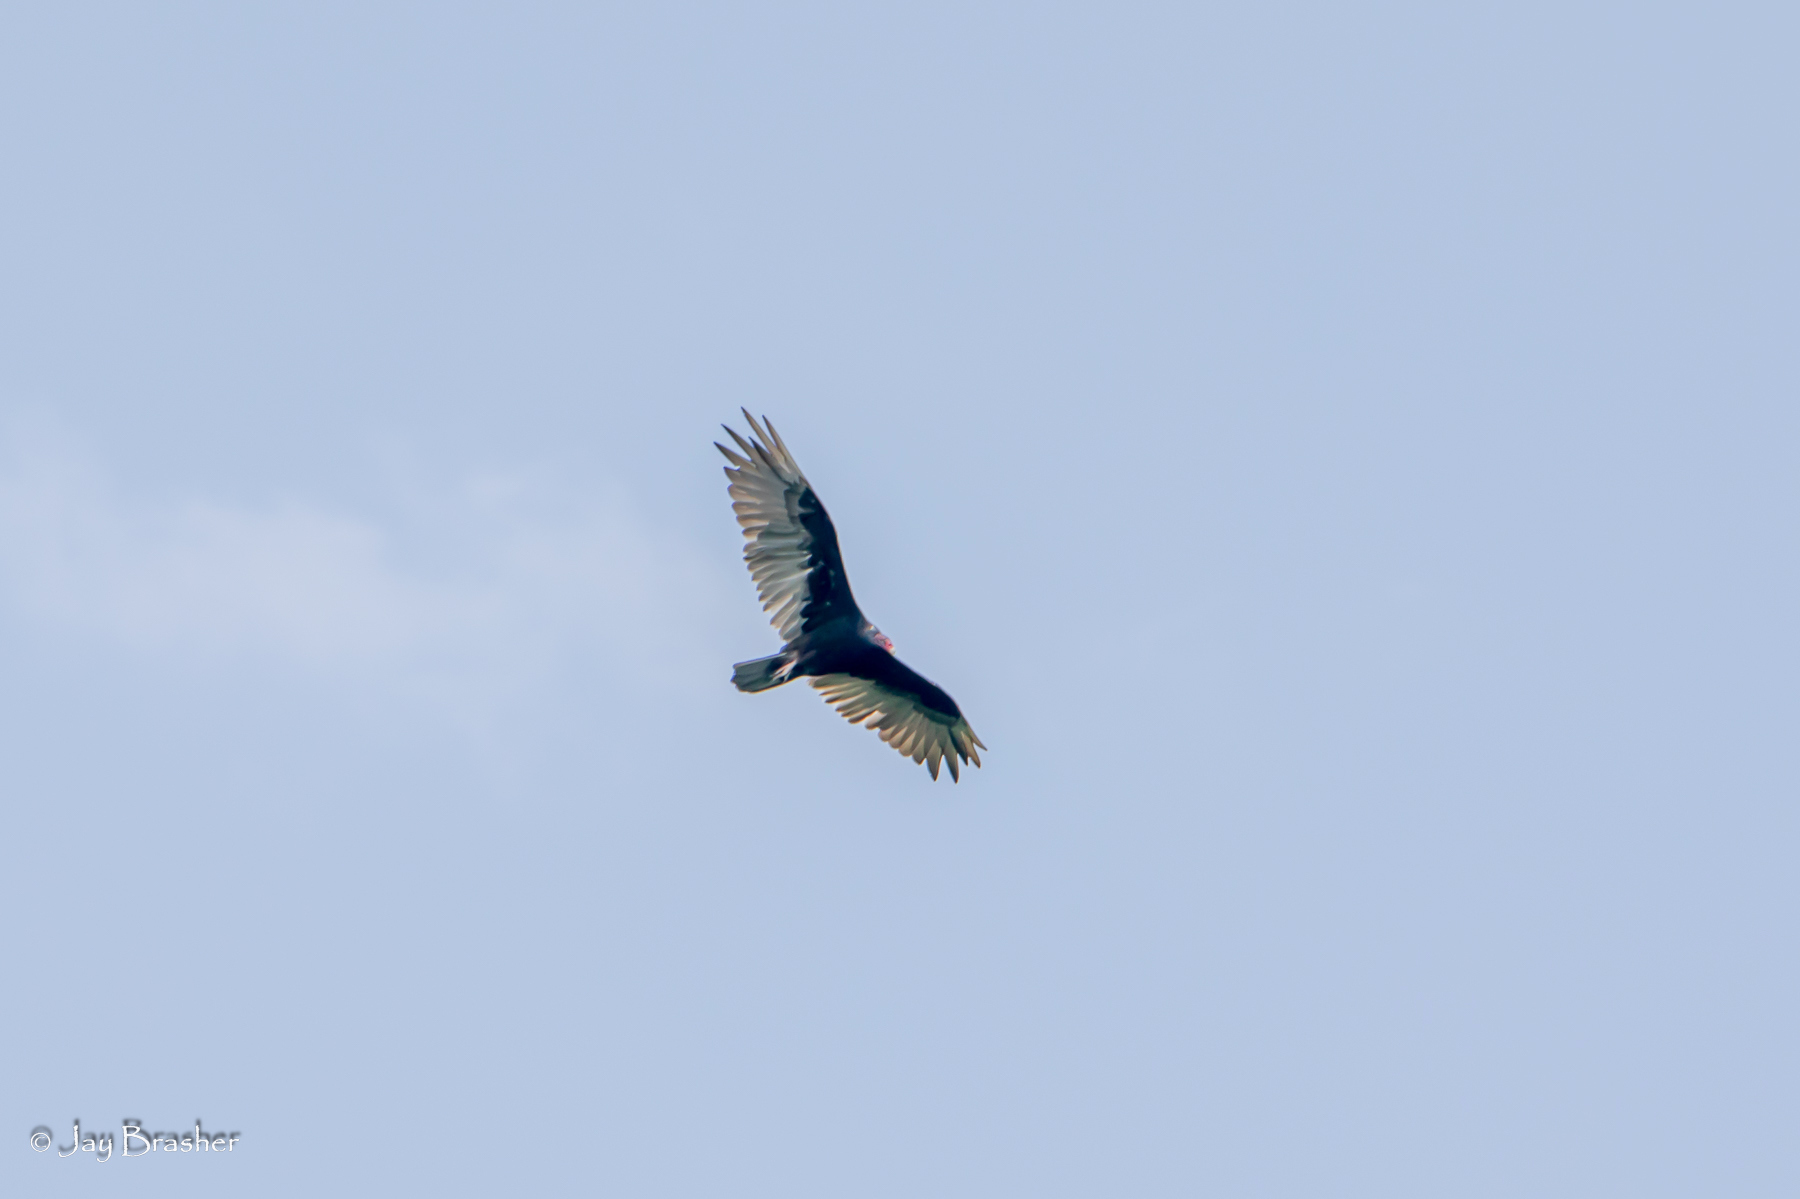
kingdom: Animalia
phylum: Chordata
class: Aves
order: Accipitriformes
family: Cathartidae
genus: Cathartes
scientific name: Cathartes aura
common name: Turkey vulture
